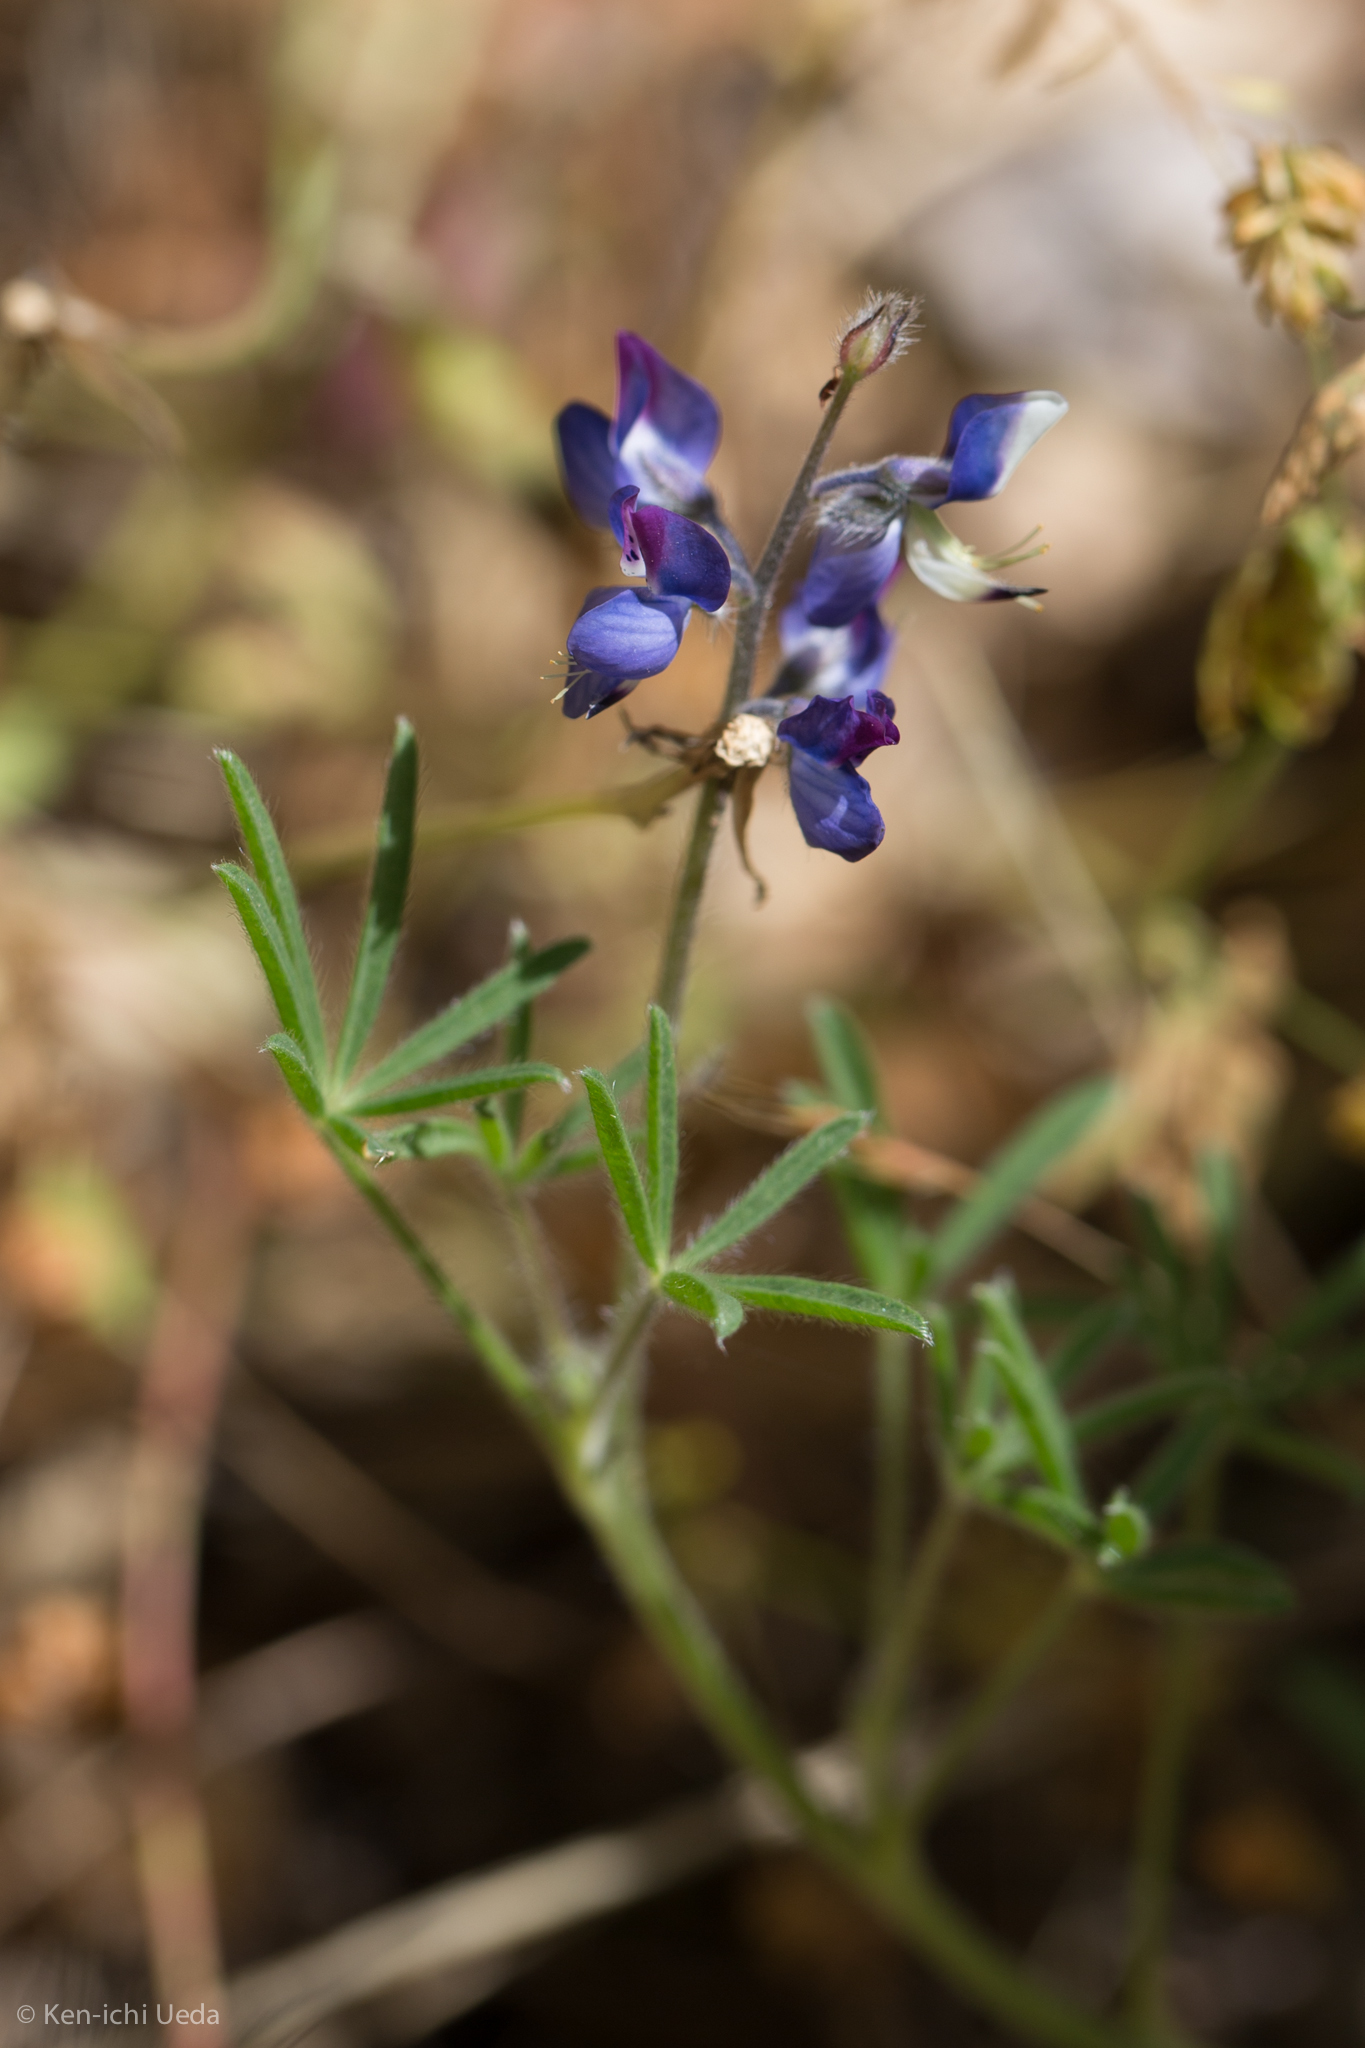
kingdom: Plantae
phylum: Tracheophyta
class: Magnoliopsida
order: Fabales
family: Fabaceae
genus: Lupinus
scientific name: Lupinus bicolor
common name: Miniature lupine
